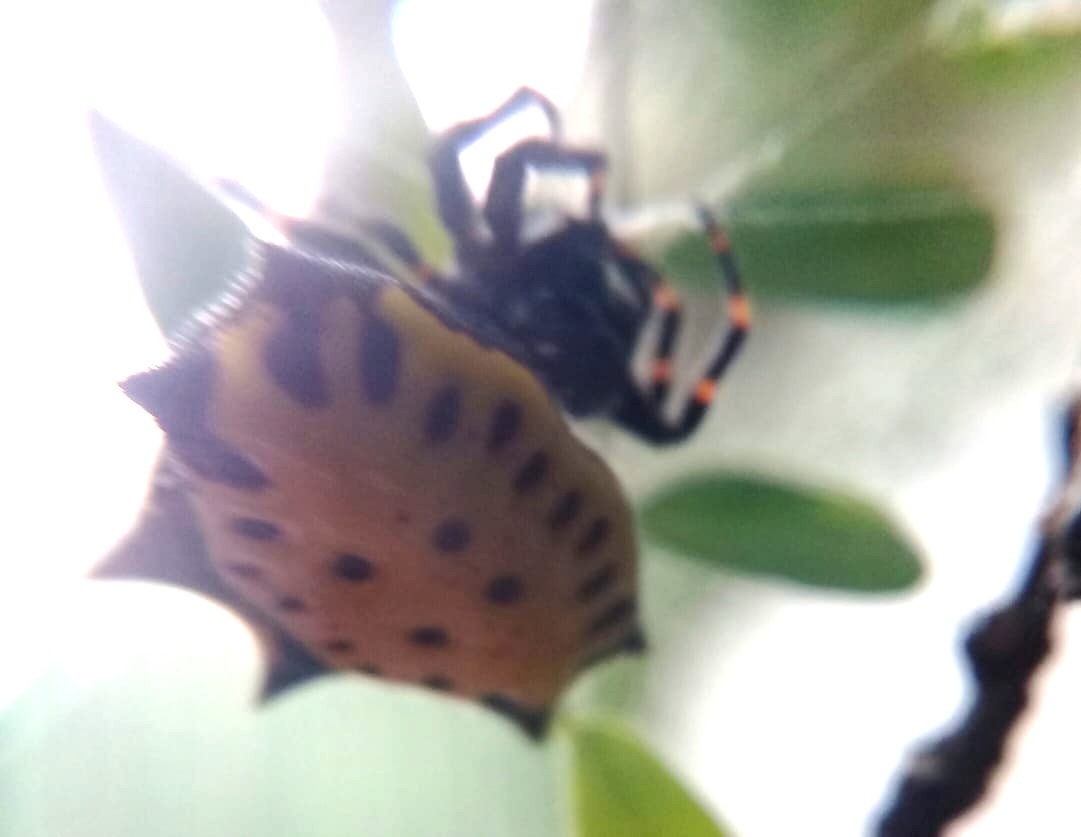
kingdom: Animalia
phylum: Arthropoda
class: Arachnida
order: Araneae
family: Araneidae
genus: Gasteracantha
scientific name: Gasteracantha cancriformis
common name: Orb weavers
